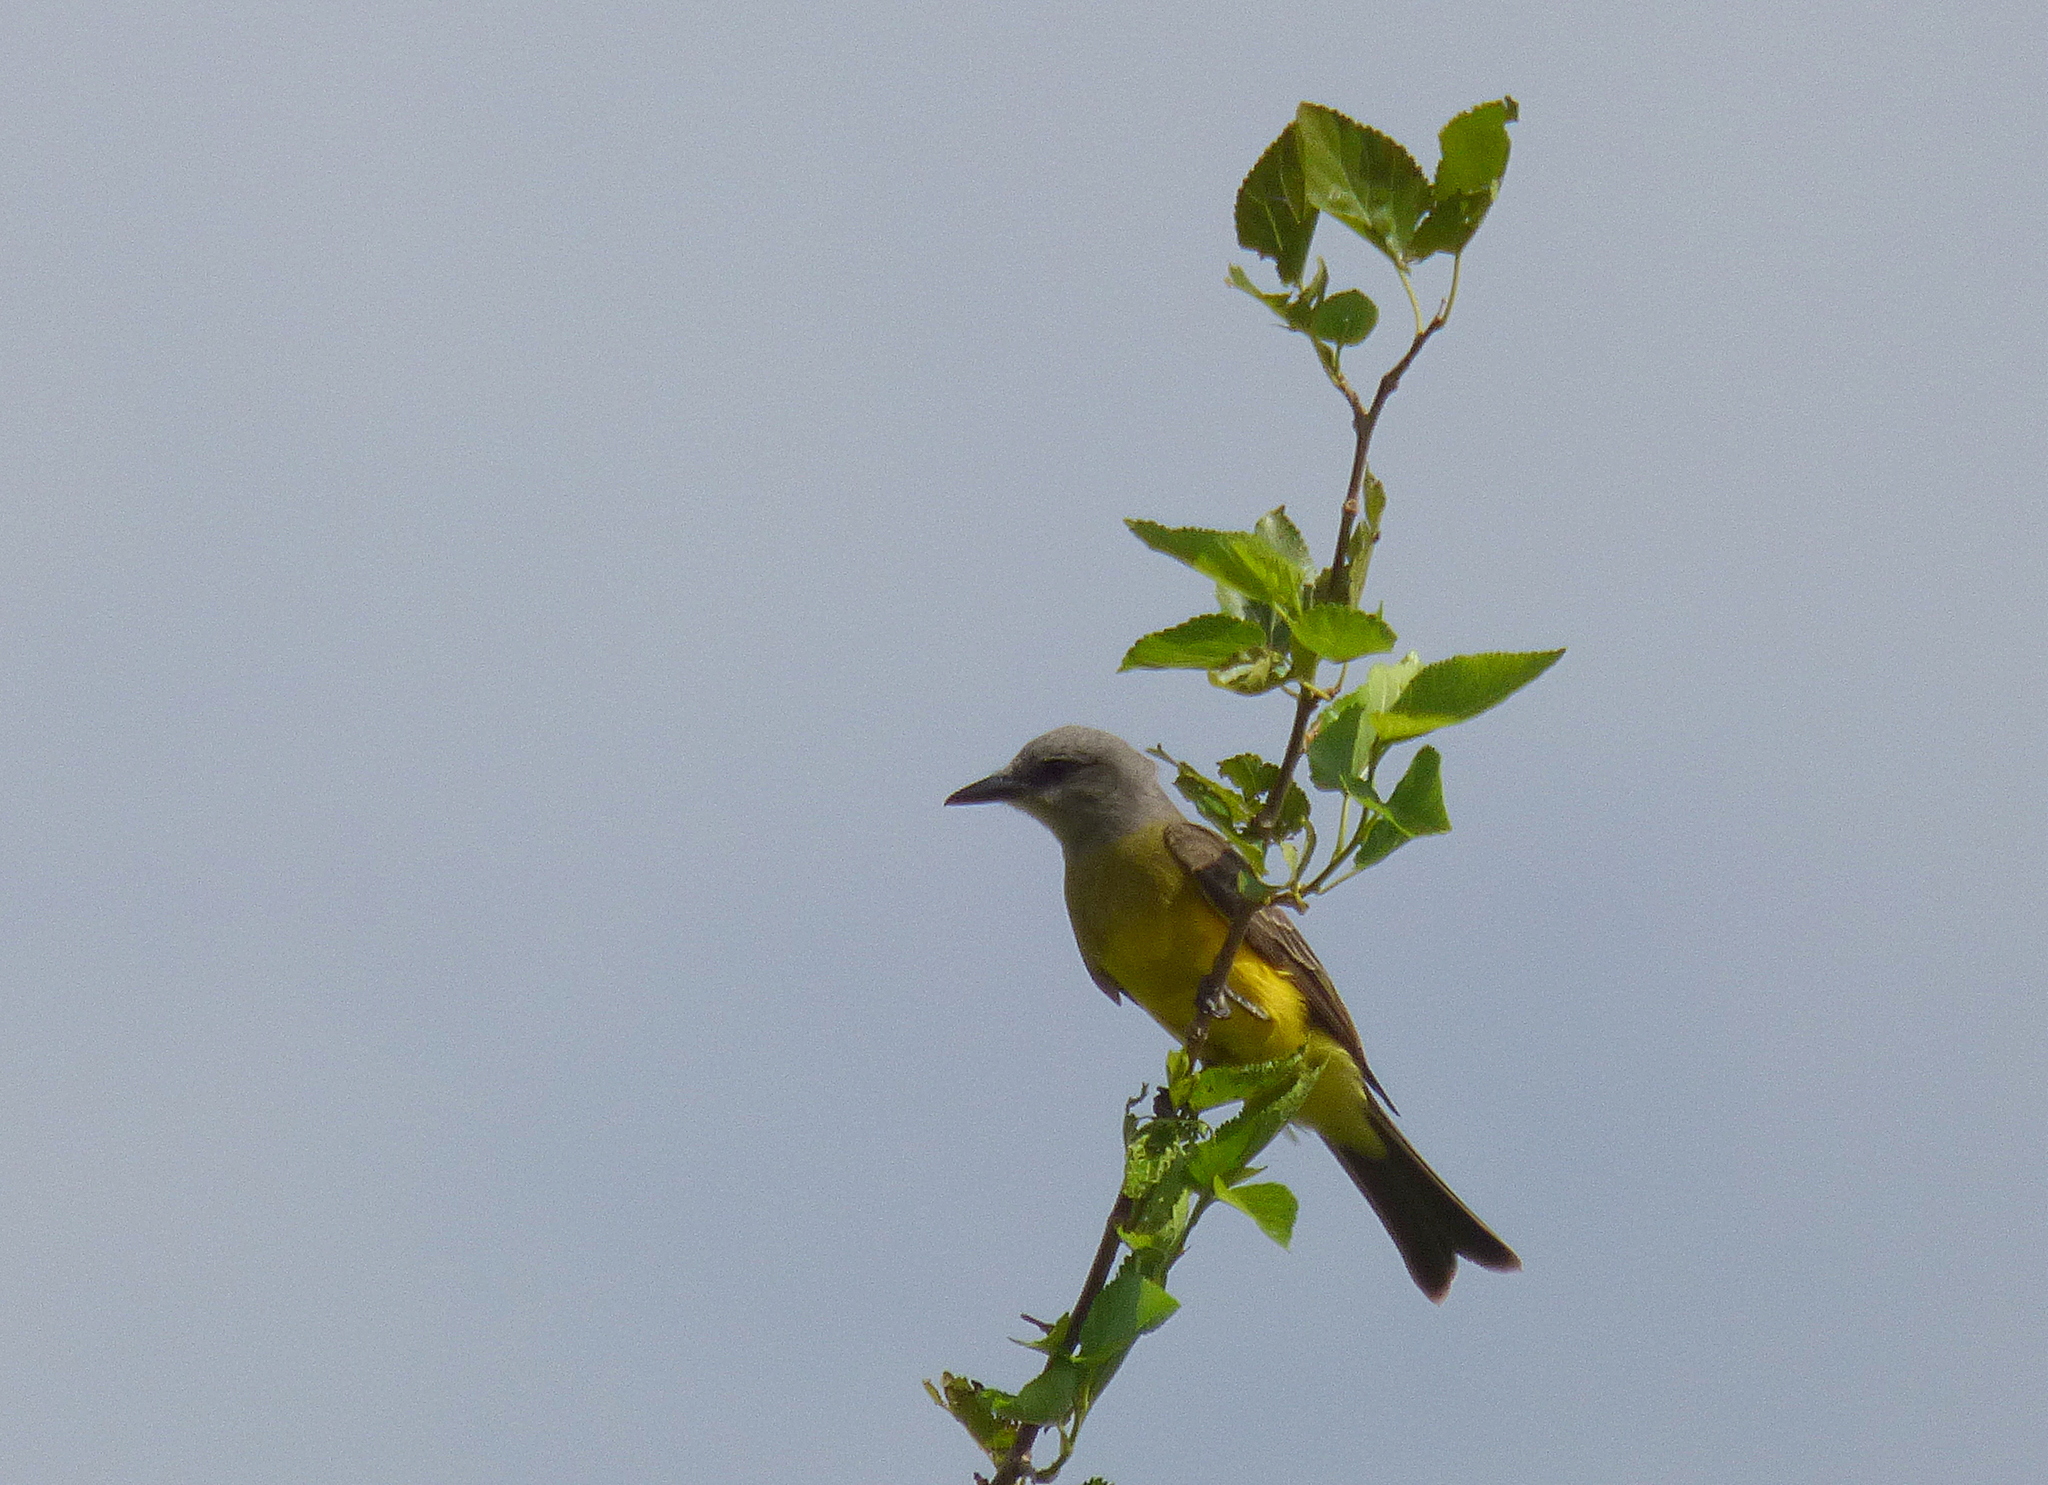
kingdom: Animalia
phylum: Chordata
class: Aves
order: Passeriformes
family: Tyrannidae
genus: Tyrannus
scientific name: Tyrannus melancholicus
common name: Tropical kingbird
